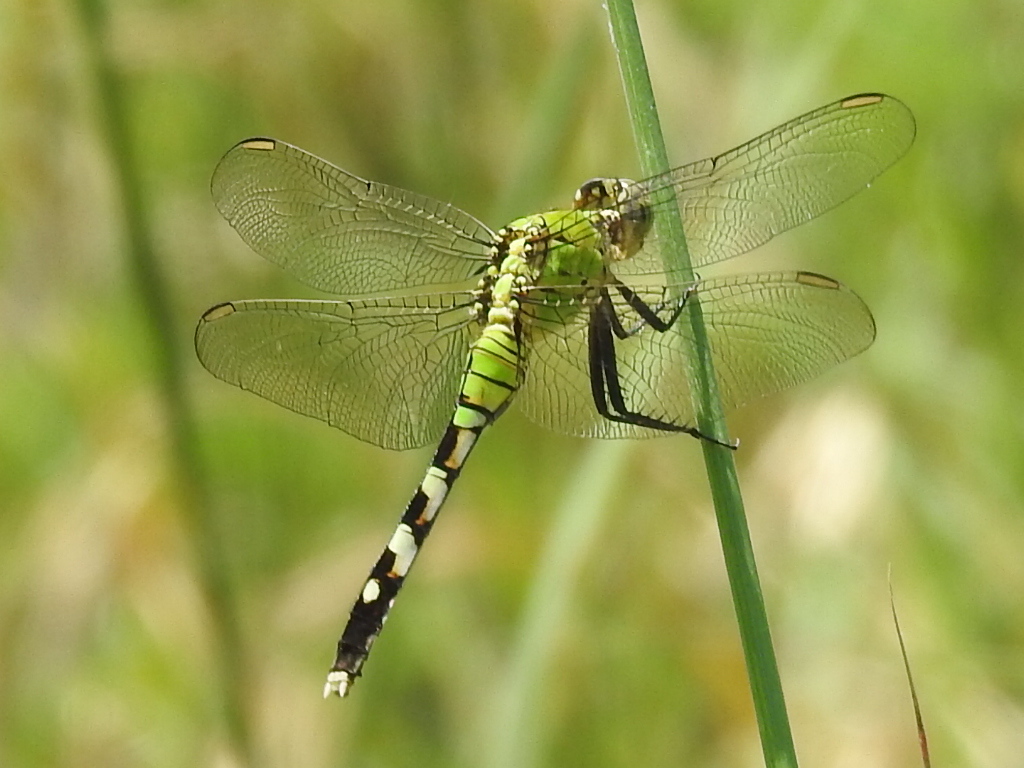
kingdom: Animalia
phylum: Arthropoda
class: Insecta
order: Odonata
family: Libellulidae
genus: Erythemis
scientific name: Erythemis simplicicollis
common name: Eastern pondhawk
